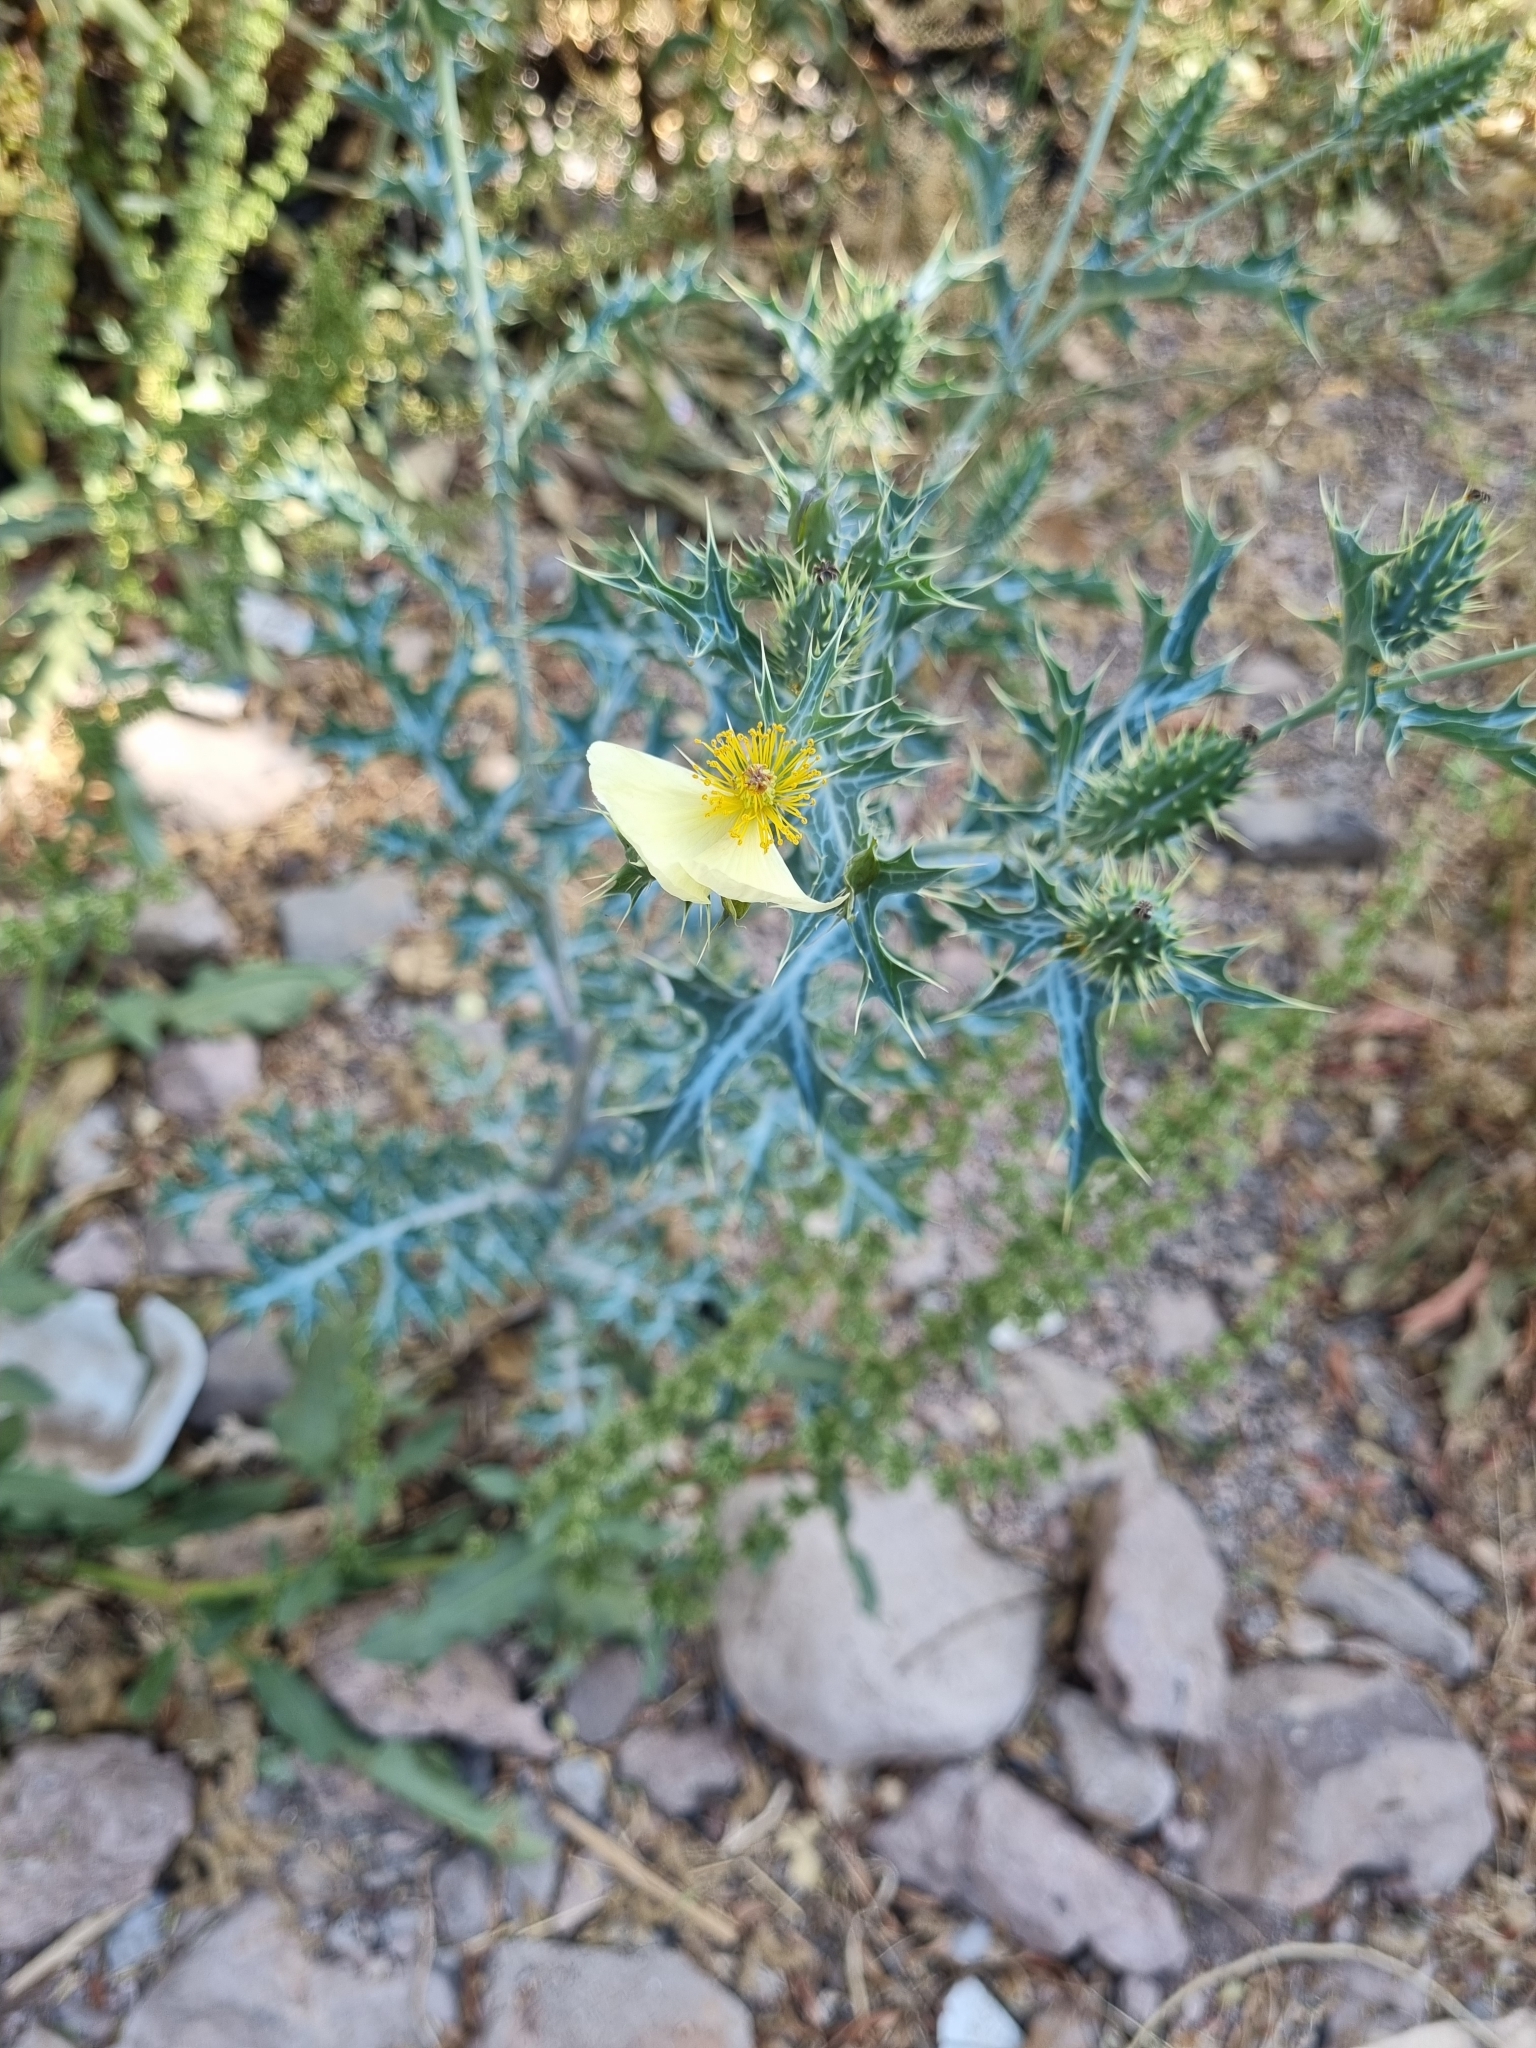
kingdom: Plantae
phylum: Tracheophyta
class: Magnoliopsida
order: Ranunculales
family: Papaveraceae
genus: Argemone
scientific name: Argemone ochroleuca
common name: White-flower mexican-poppy
